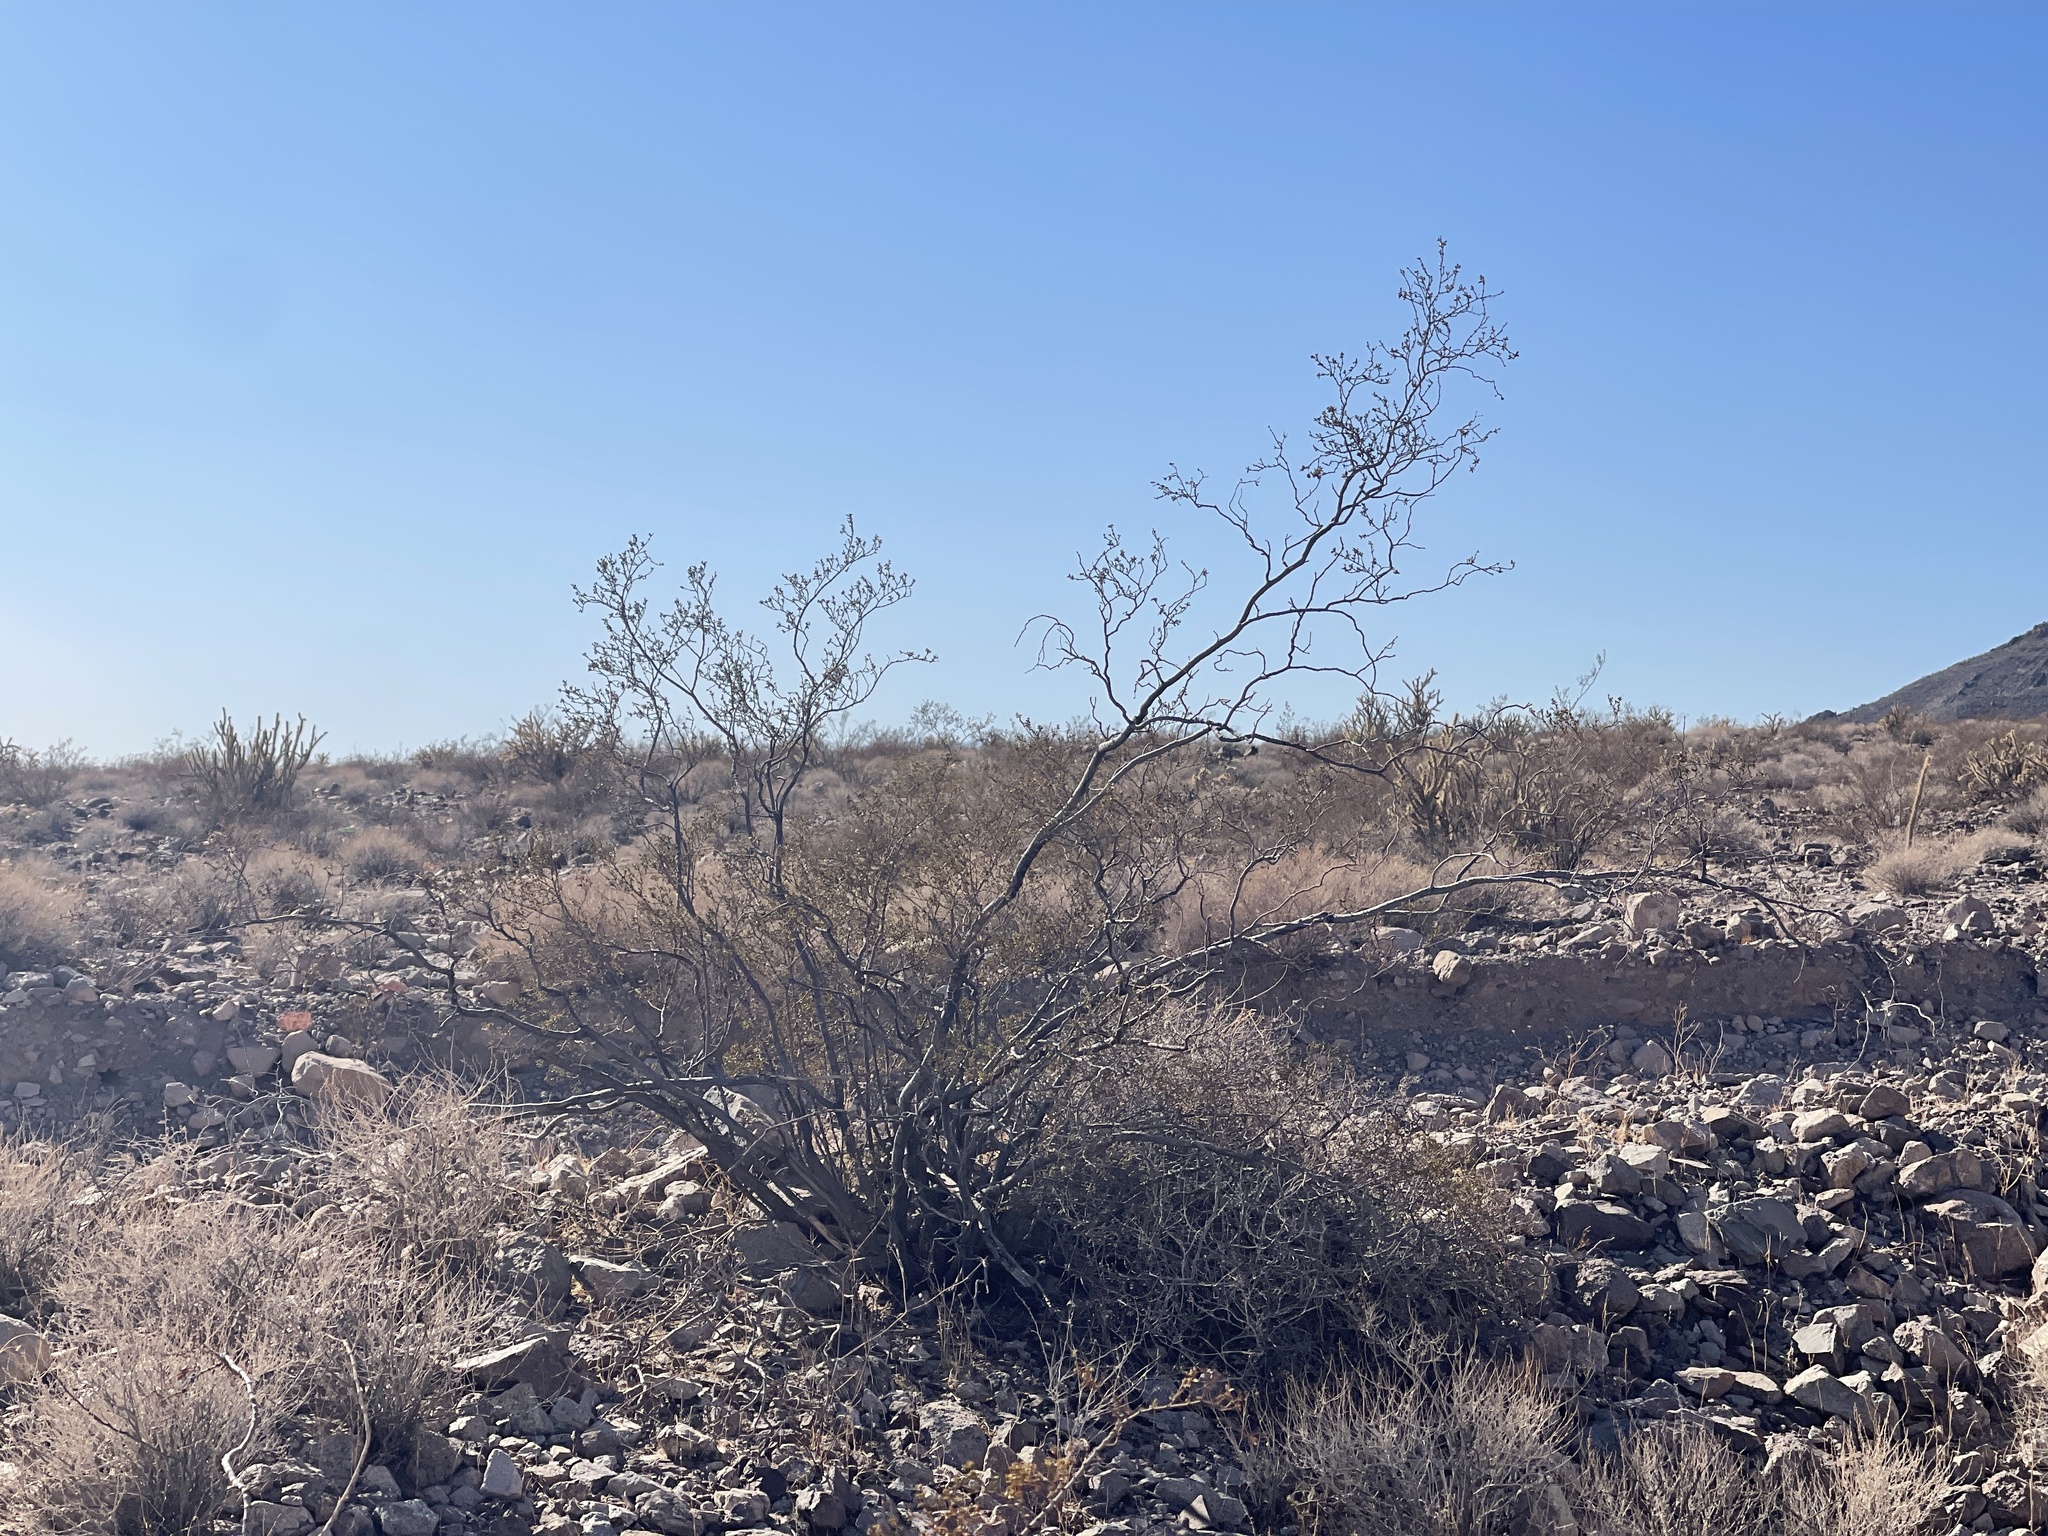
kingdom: Plantae
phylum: Tracheophyta
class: Magnoliopsida
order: Zygophyllales
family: Zygophyllaceae
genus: Larrea
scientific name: Larrea tridentata
